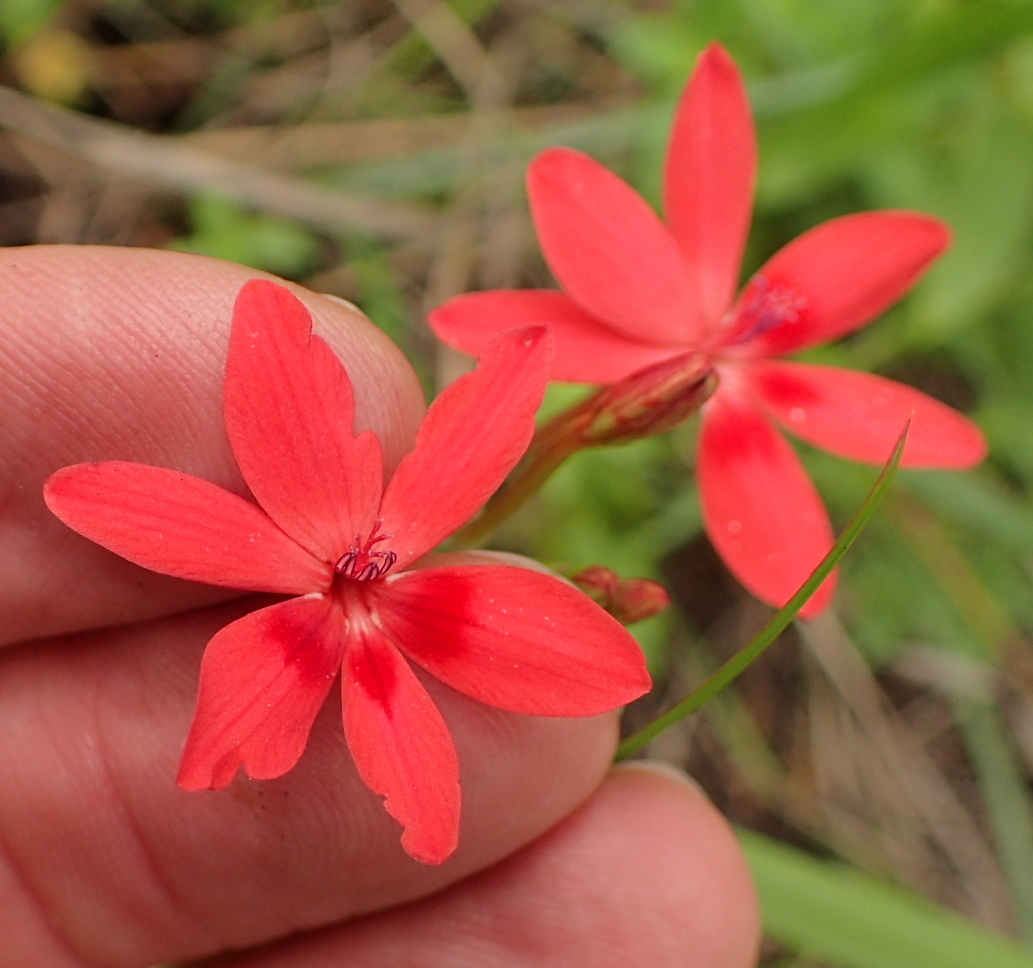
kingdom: Plantae
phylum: Tracheophyta
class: Liliopsida
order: Asparagales
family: Iridaceae
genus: Freesia
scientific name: Freesia laxa
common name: False freesia
